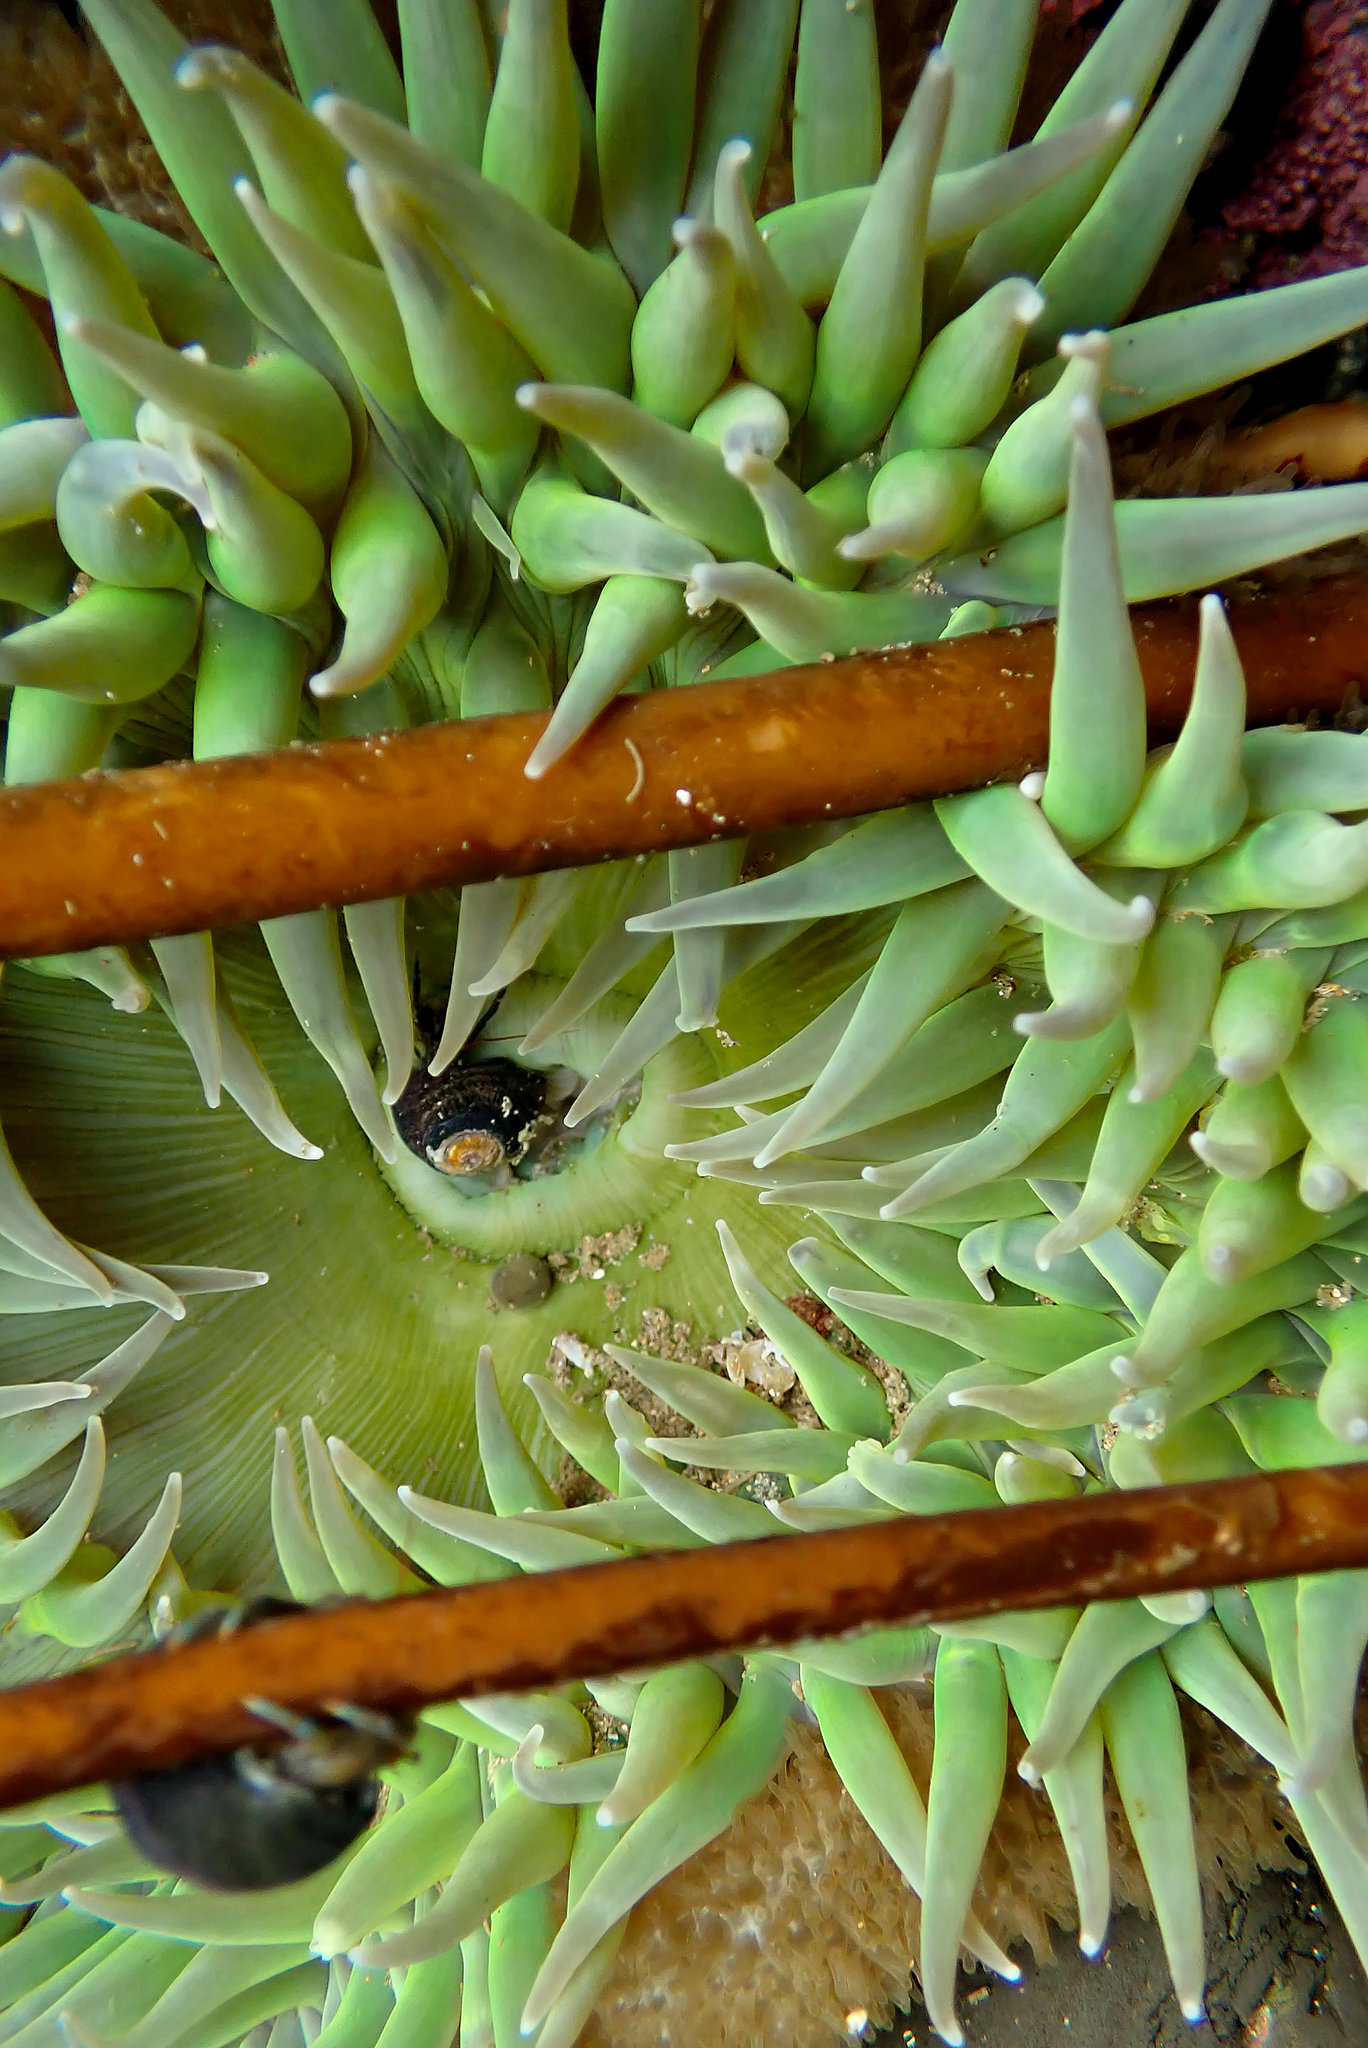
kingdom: Animalia
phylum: Cnidaria
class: Anthozoa
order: Actiniaria
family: Actiniidae
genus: Anthopleura
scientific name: Anthopleura xanthogrammica
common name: Giant green anemone
